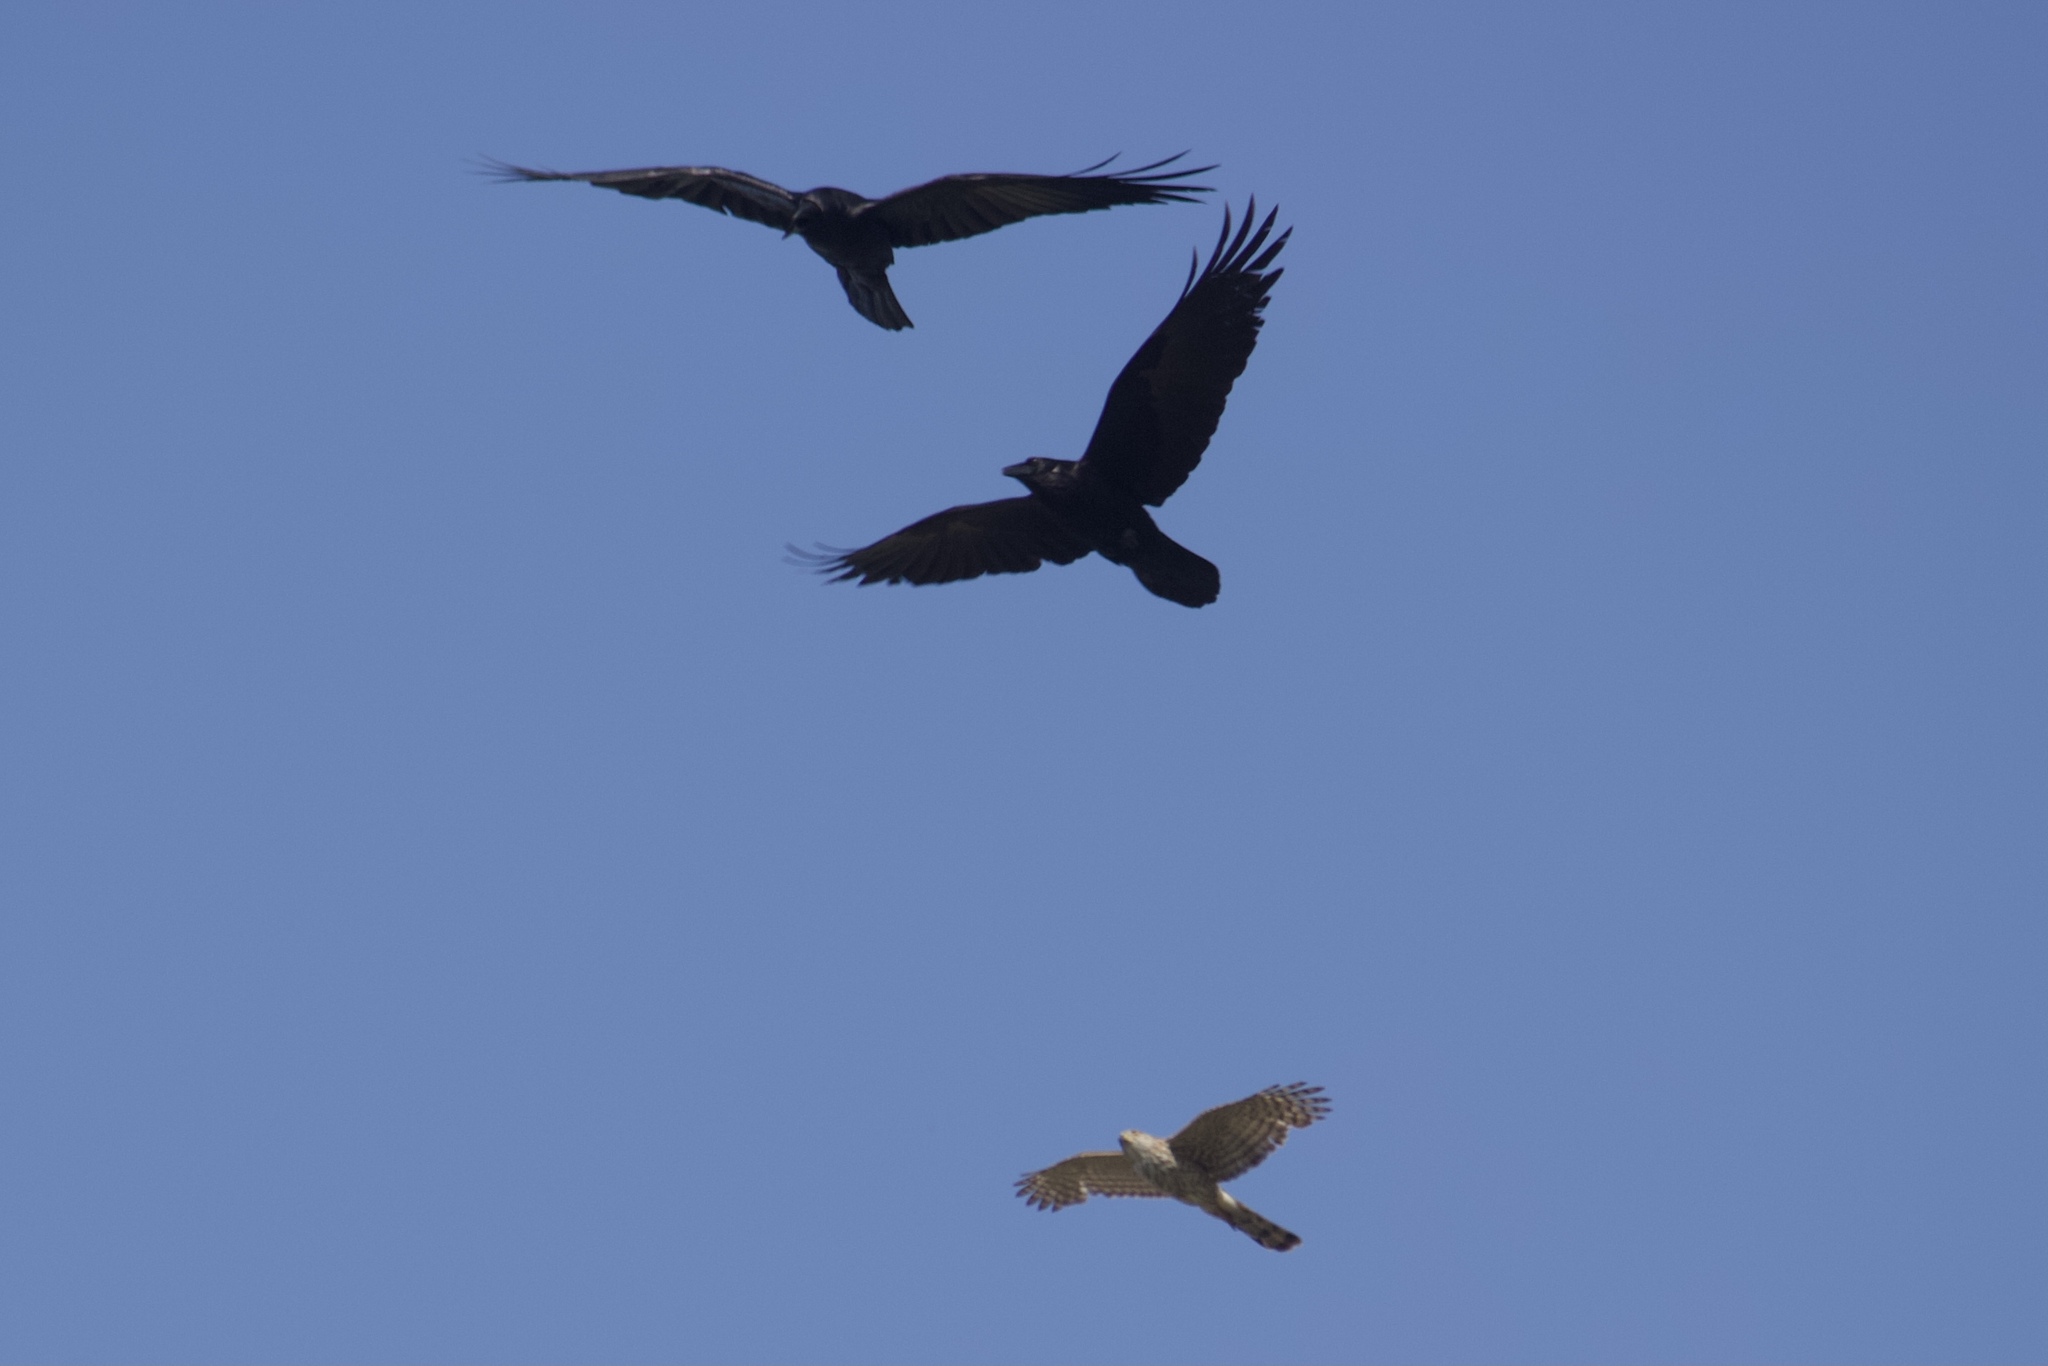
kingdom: Animalia
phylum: Chordata
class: Aves
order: Accipitriformes
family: Accipitridae
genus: Accipiter
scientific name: Accipiter cooperii
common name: Cooper's hawk
